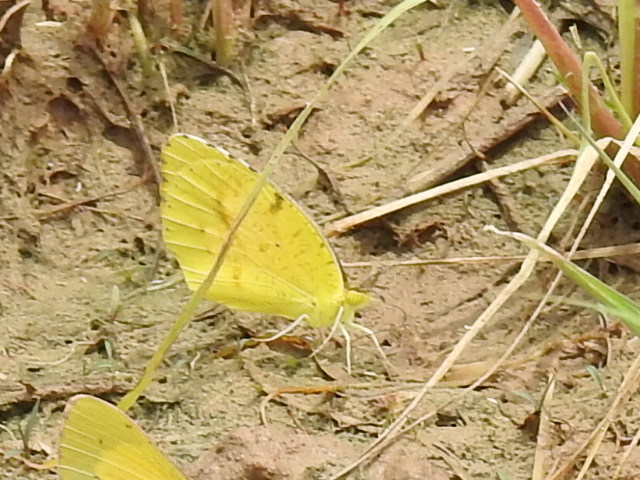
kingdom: Animalia
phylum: Arthropoda
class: Insecta
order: Lepidoptera
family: Pieridae
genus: Abaeis
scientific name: Abaeis nicippe
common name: Sleepy orange
